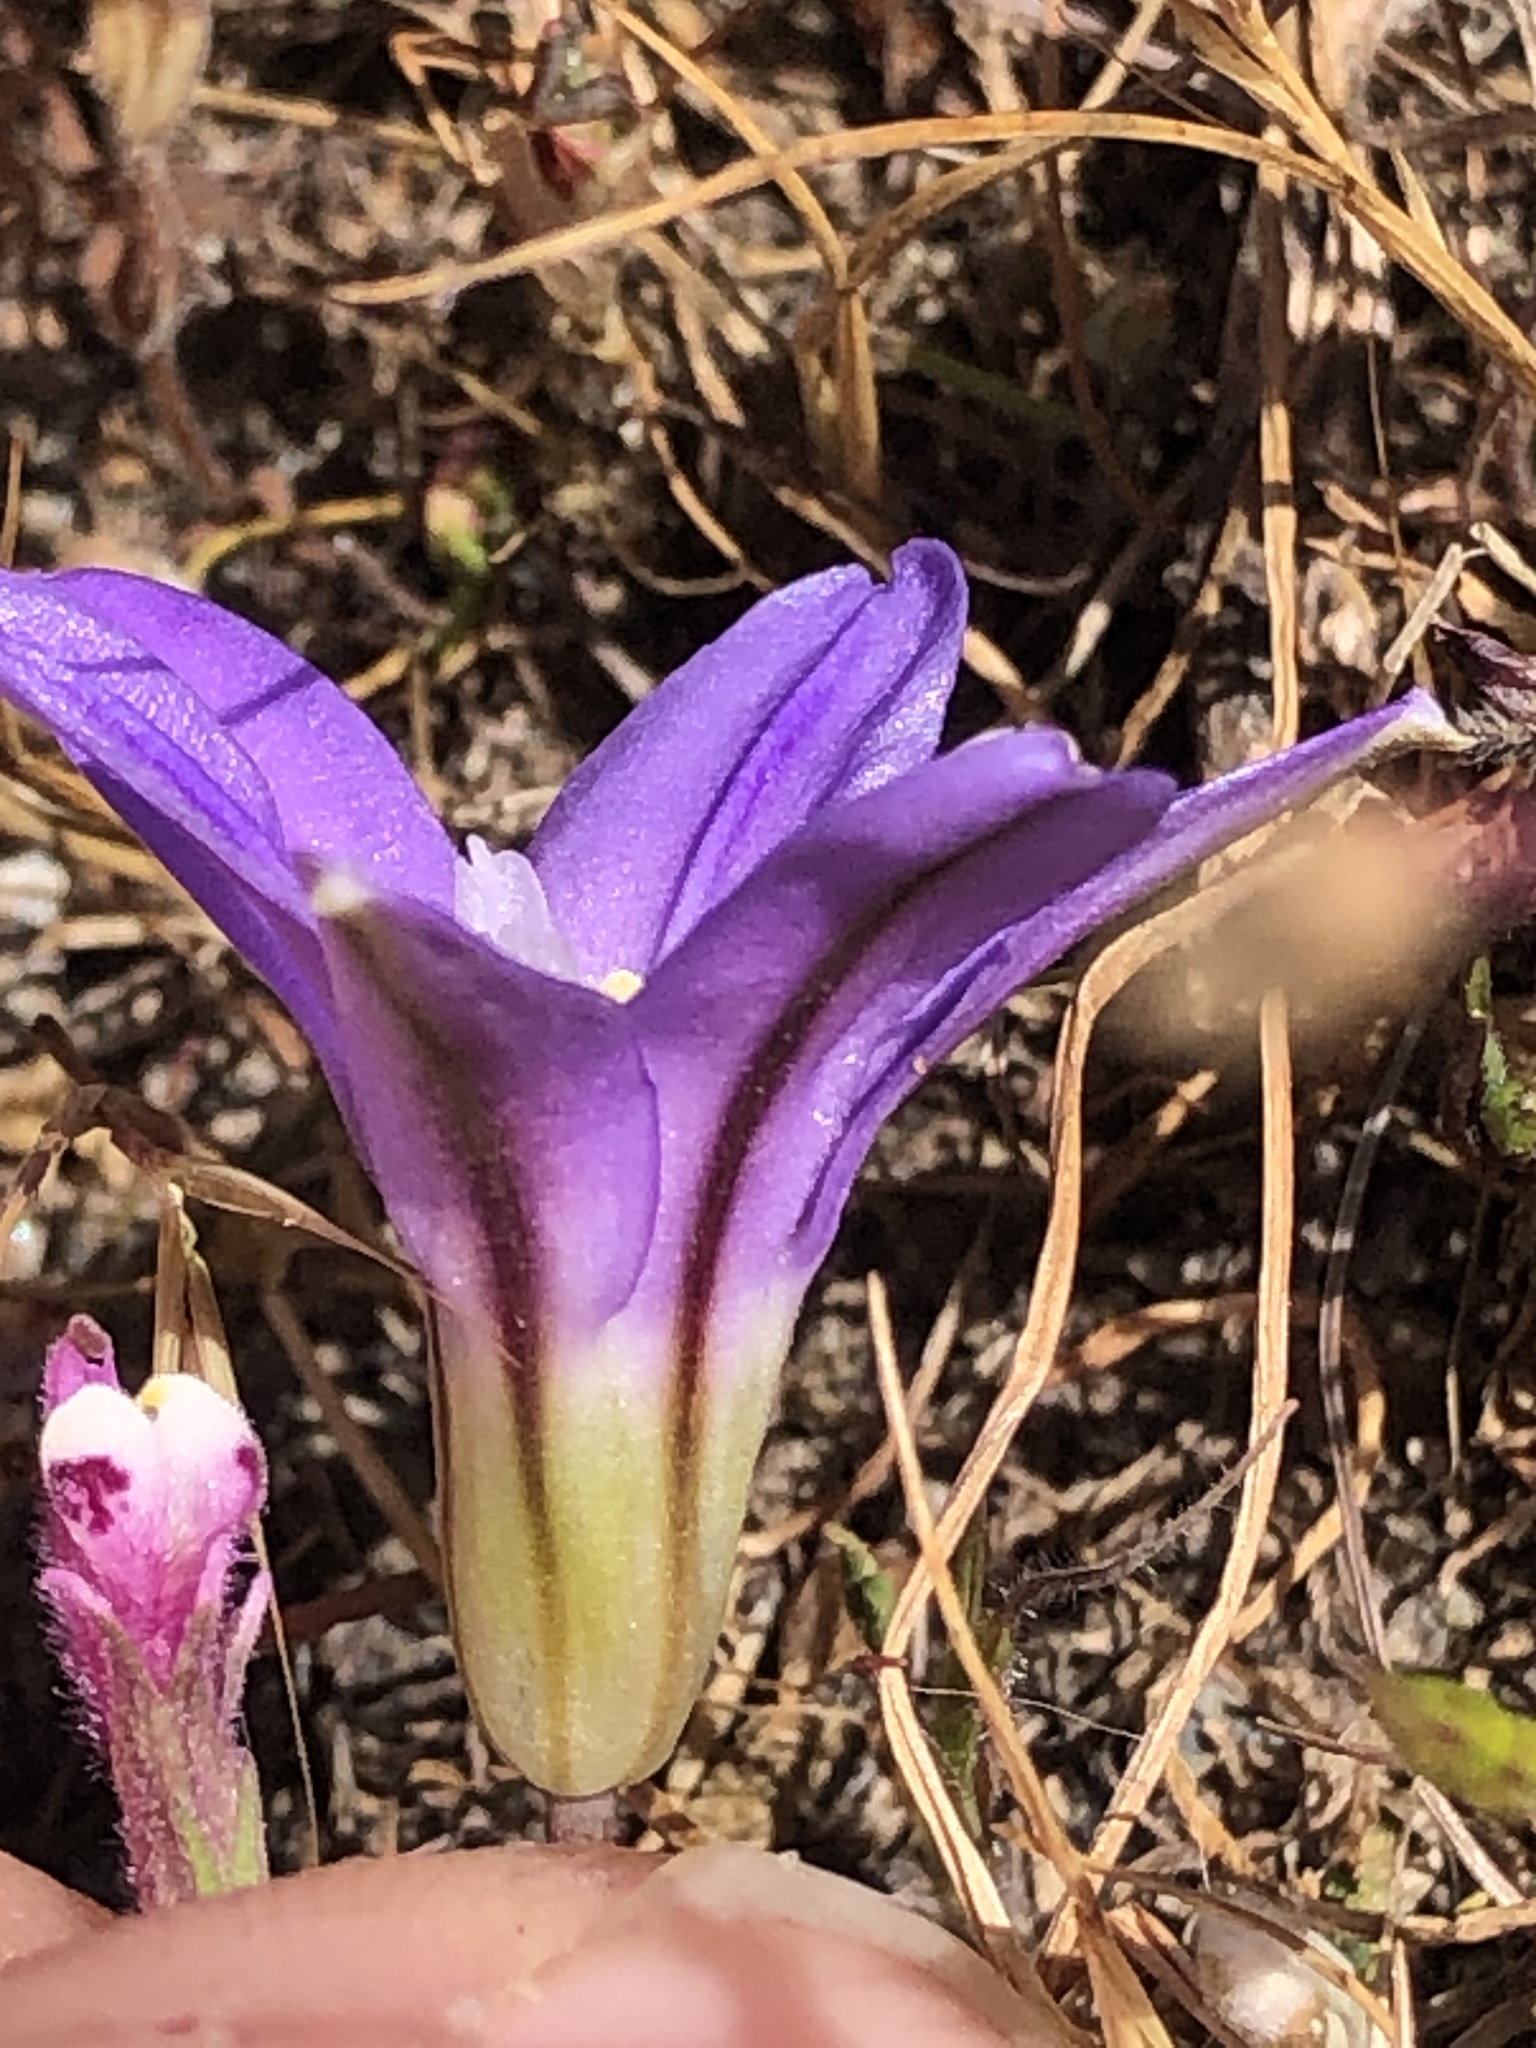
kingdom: Plantae
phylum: Tracheophyta
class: Liliopsida
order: Asparagales
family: Asparagaceae
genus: Brodiaea
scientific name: Brodiaea terrestris
